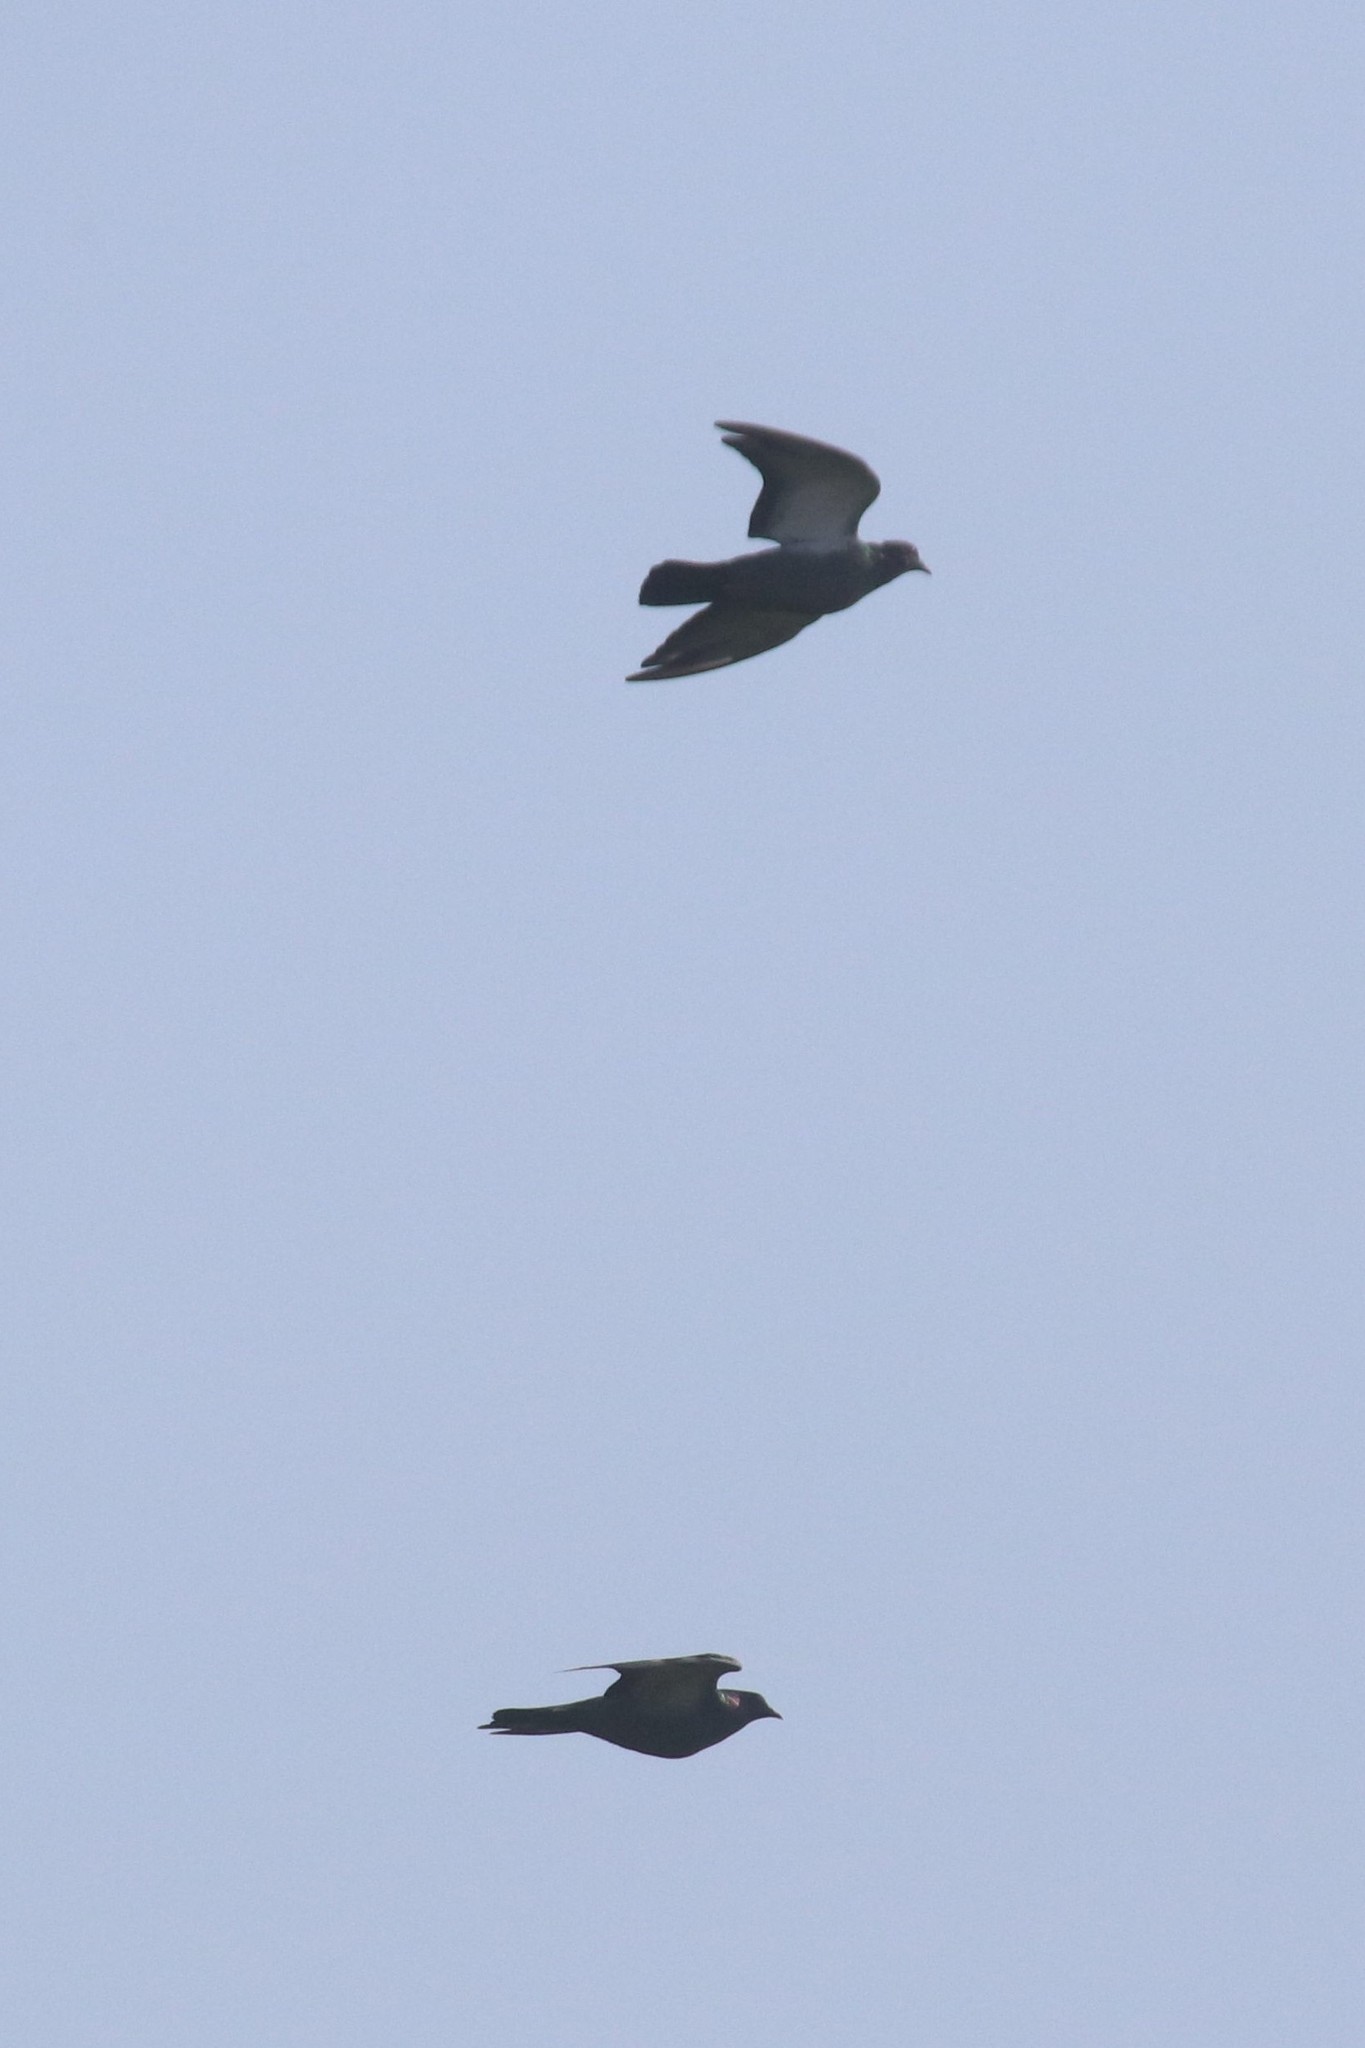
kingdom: Animalia
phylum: Chordata
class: Aves
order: Columbiformes
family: Columbidae
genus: Columba
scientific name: Columba livia
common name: Rock pigeon
